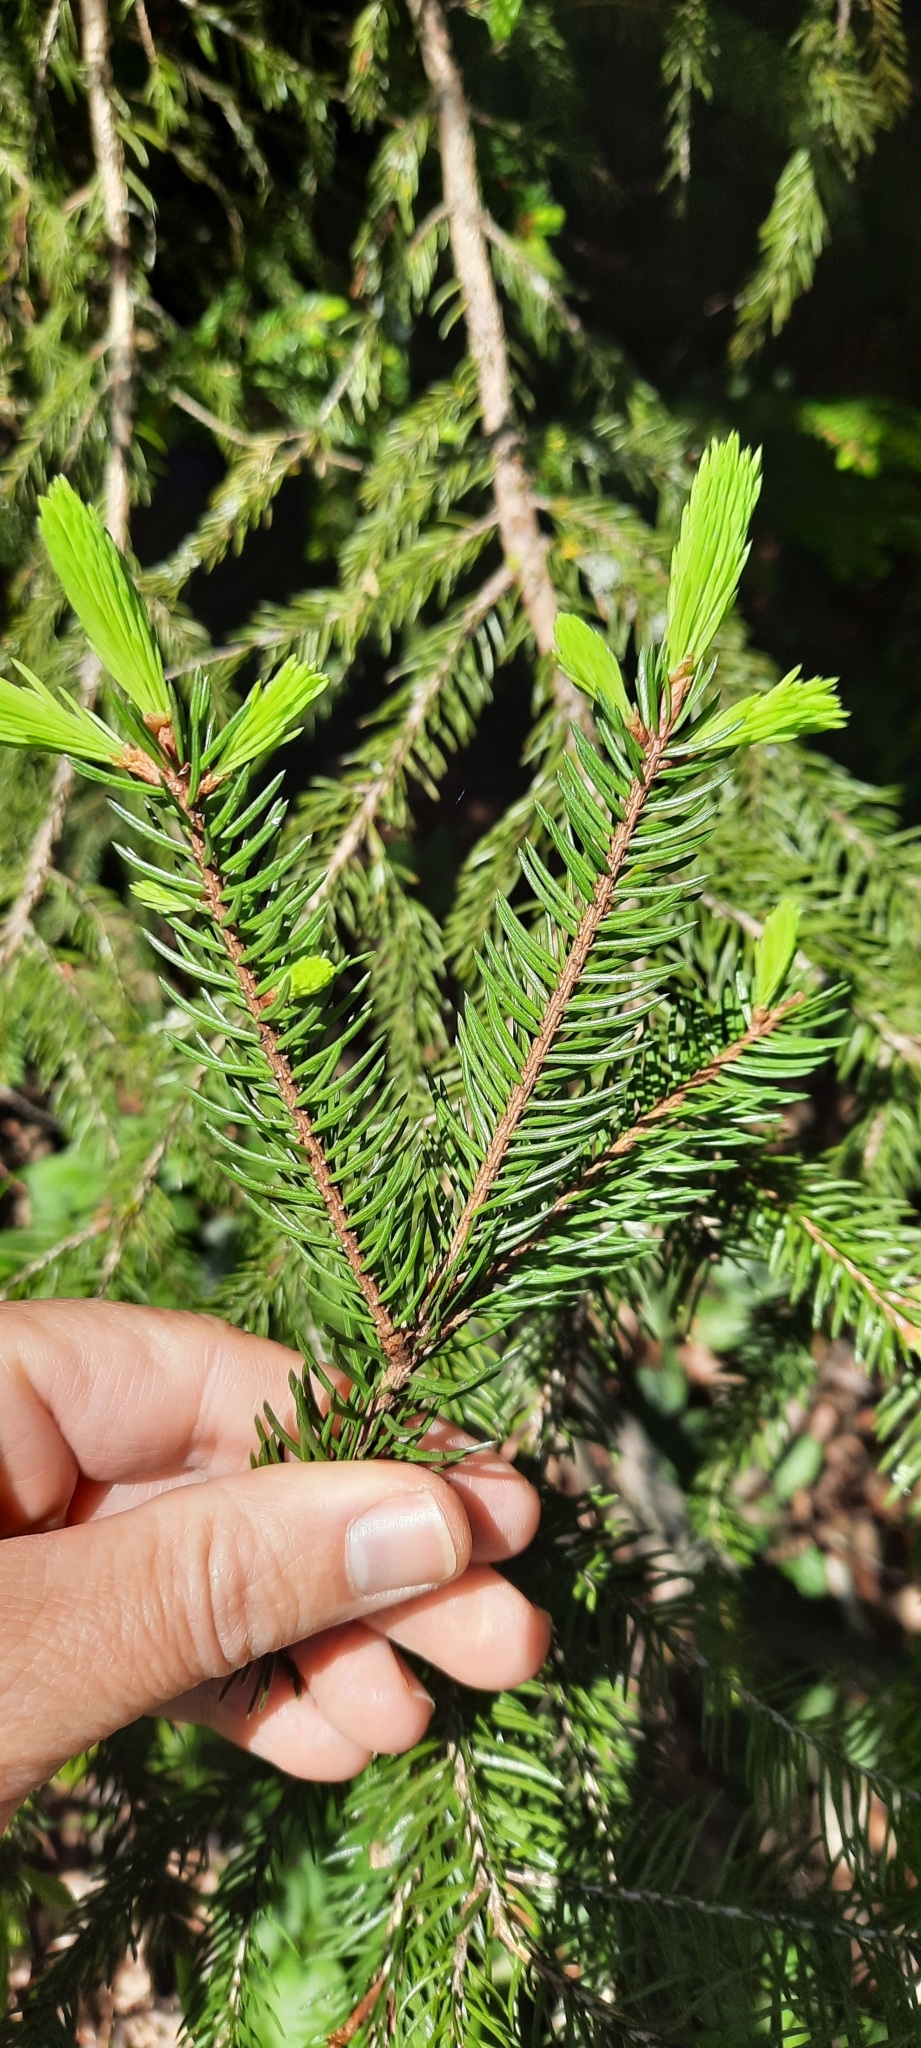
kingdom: Plantae
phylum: Tracheophyta
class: Pinopsida
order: Pinales
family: Pinaceae
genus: Picea
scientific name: Picea abies
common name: Norway spruce
